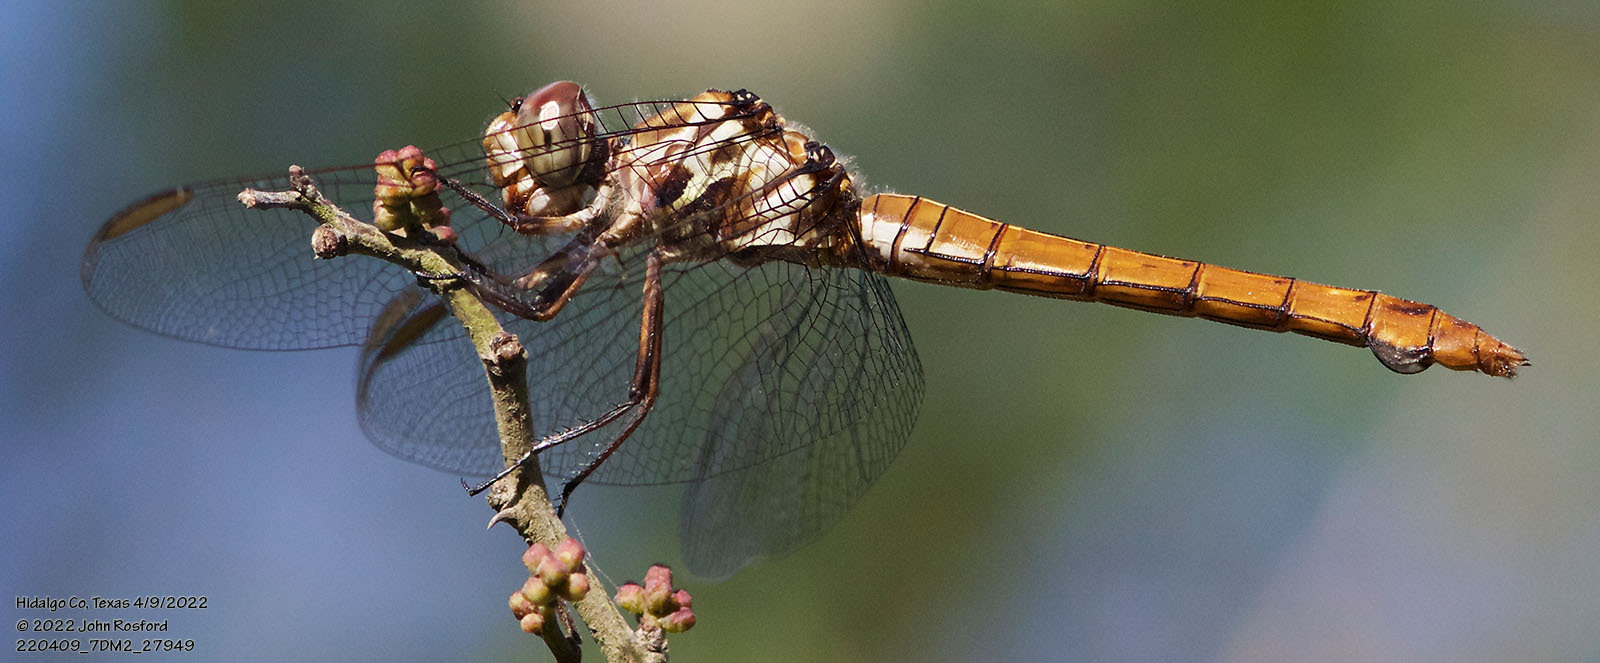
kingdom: Animalia
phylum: Arthropoda
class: Insecta
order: Odonata
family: Libellulidae
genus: Orthemis
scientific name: Orthemis ferruginea
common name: Roseate skimmer
